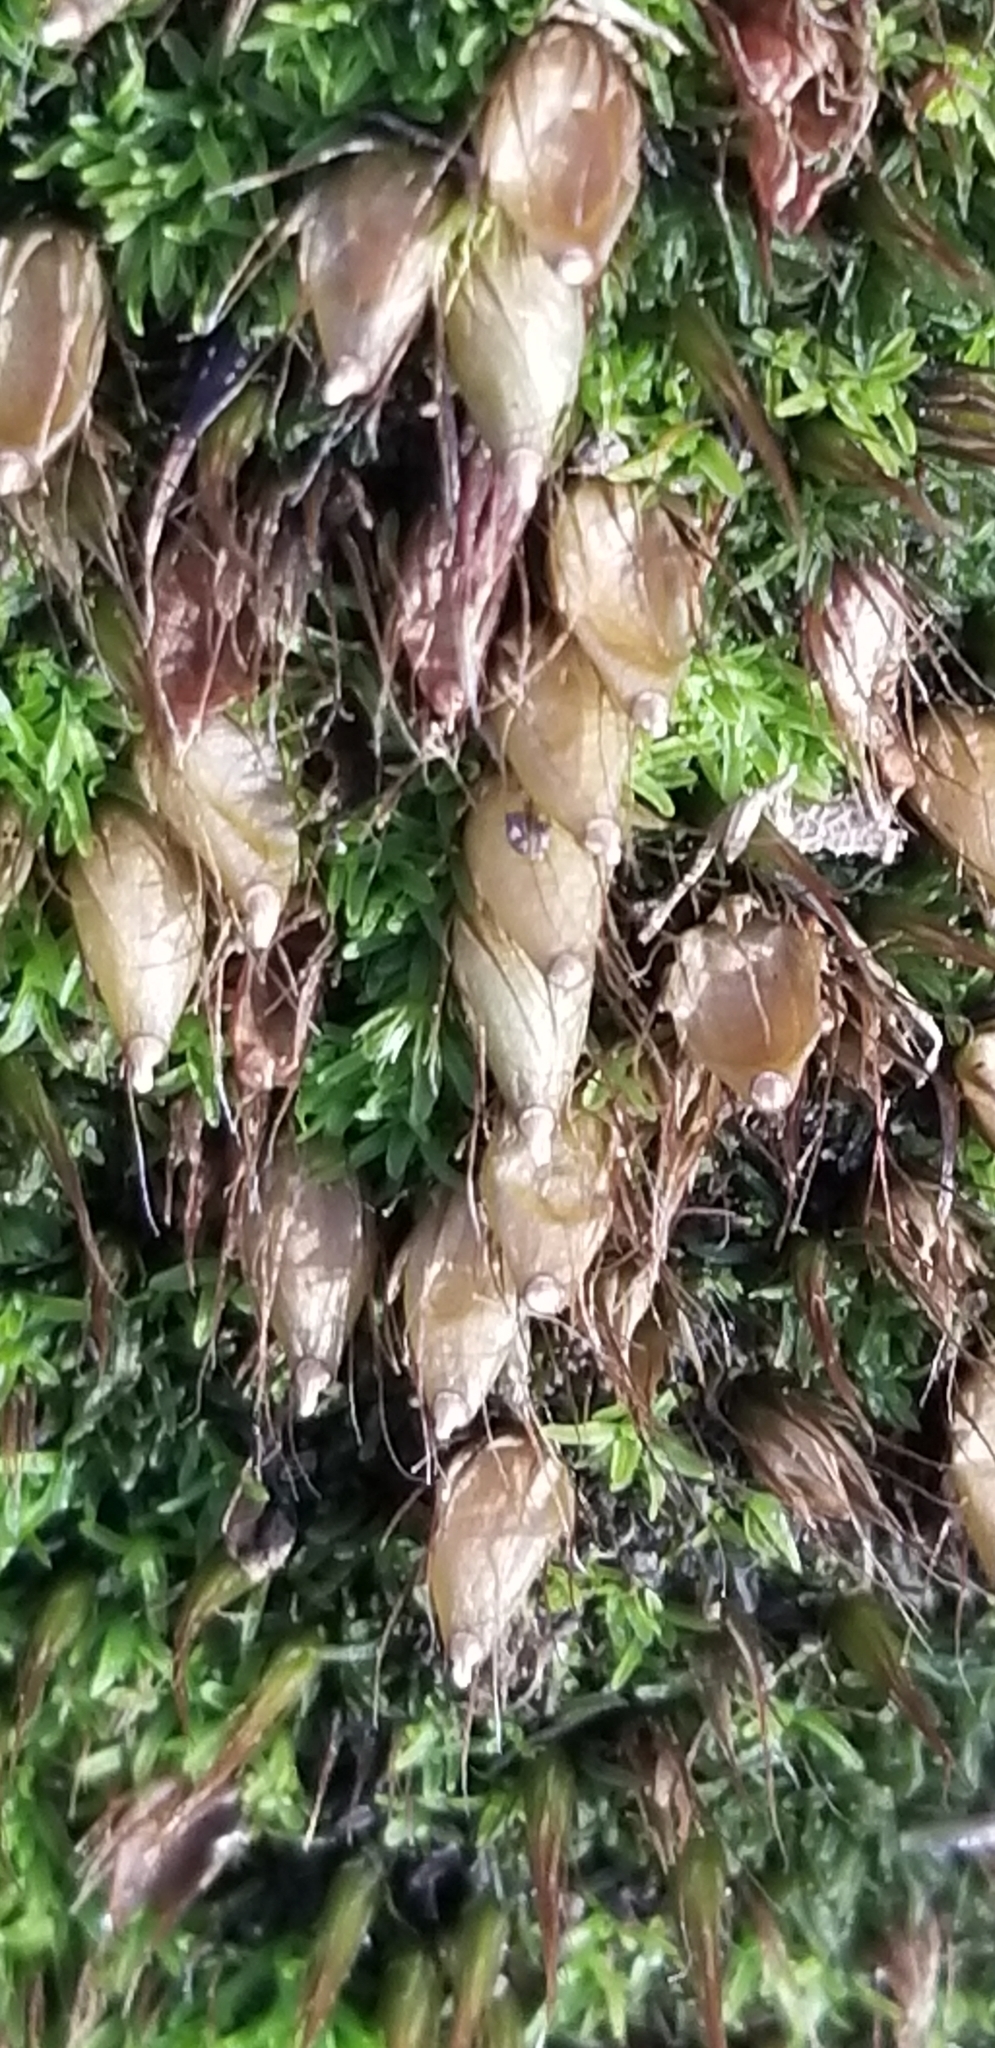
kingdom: Plantae
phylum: Bryophyta
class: Bryopsida
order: Diphysciales
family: Diphysciaceae
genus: Diphyscium
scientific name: Diphyscium foliosum
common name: Nut moss
